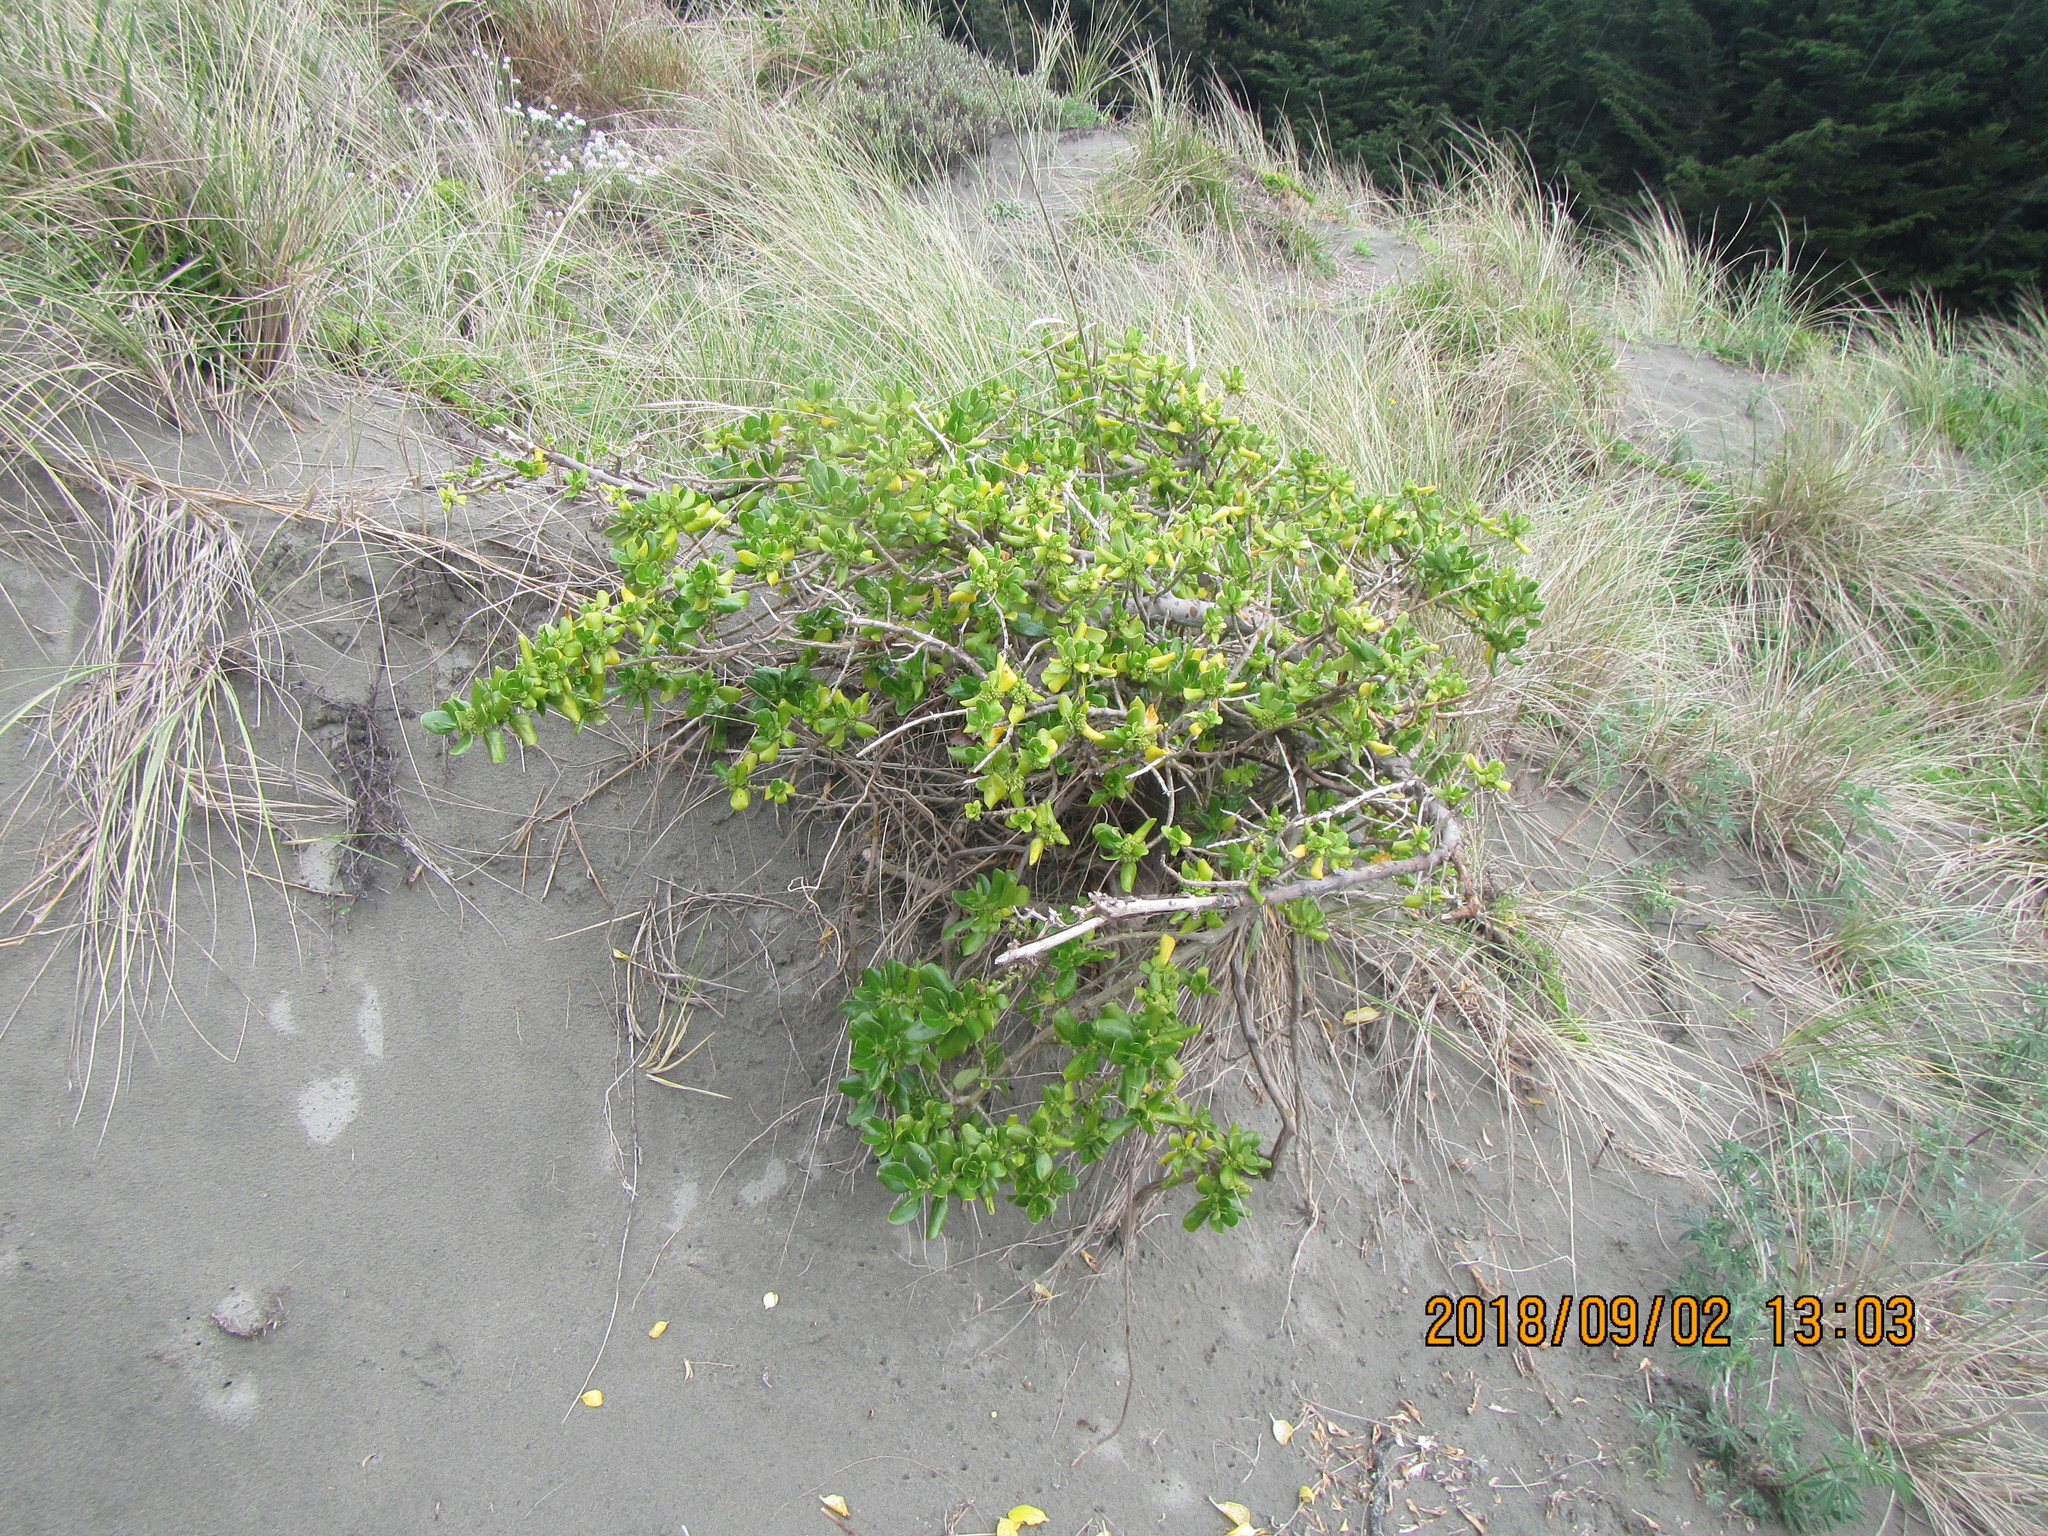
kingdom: Plantae
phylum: Tracheophyta
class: Magnoliopsida
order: Gentianales
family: Rubiaceae
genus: Coprosma
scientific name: Coprosma repens
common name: Tree bedstraw
